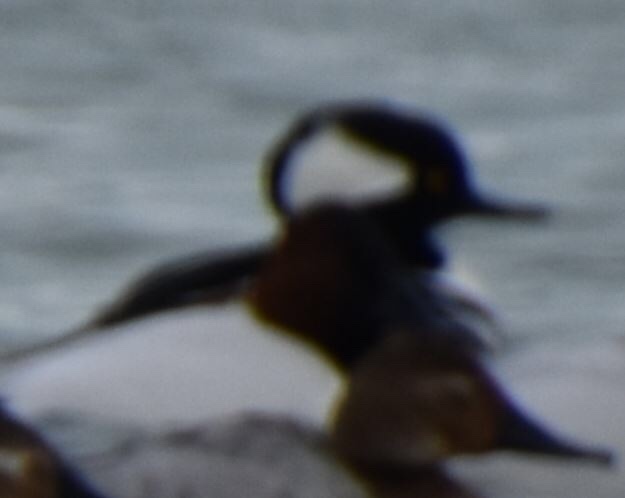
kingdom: Animalia
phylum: Chordata
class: Aves
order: Anseriformes
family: Anatidae
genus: Lophodytes
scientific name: Lophodytes cucullatus
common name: Hooded merganser
